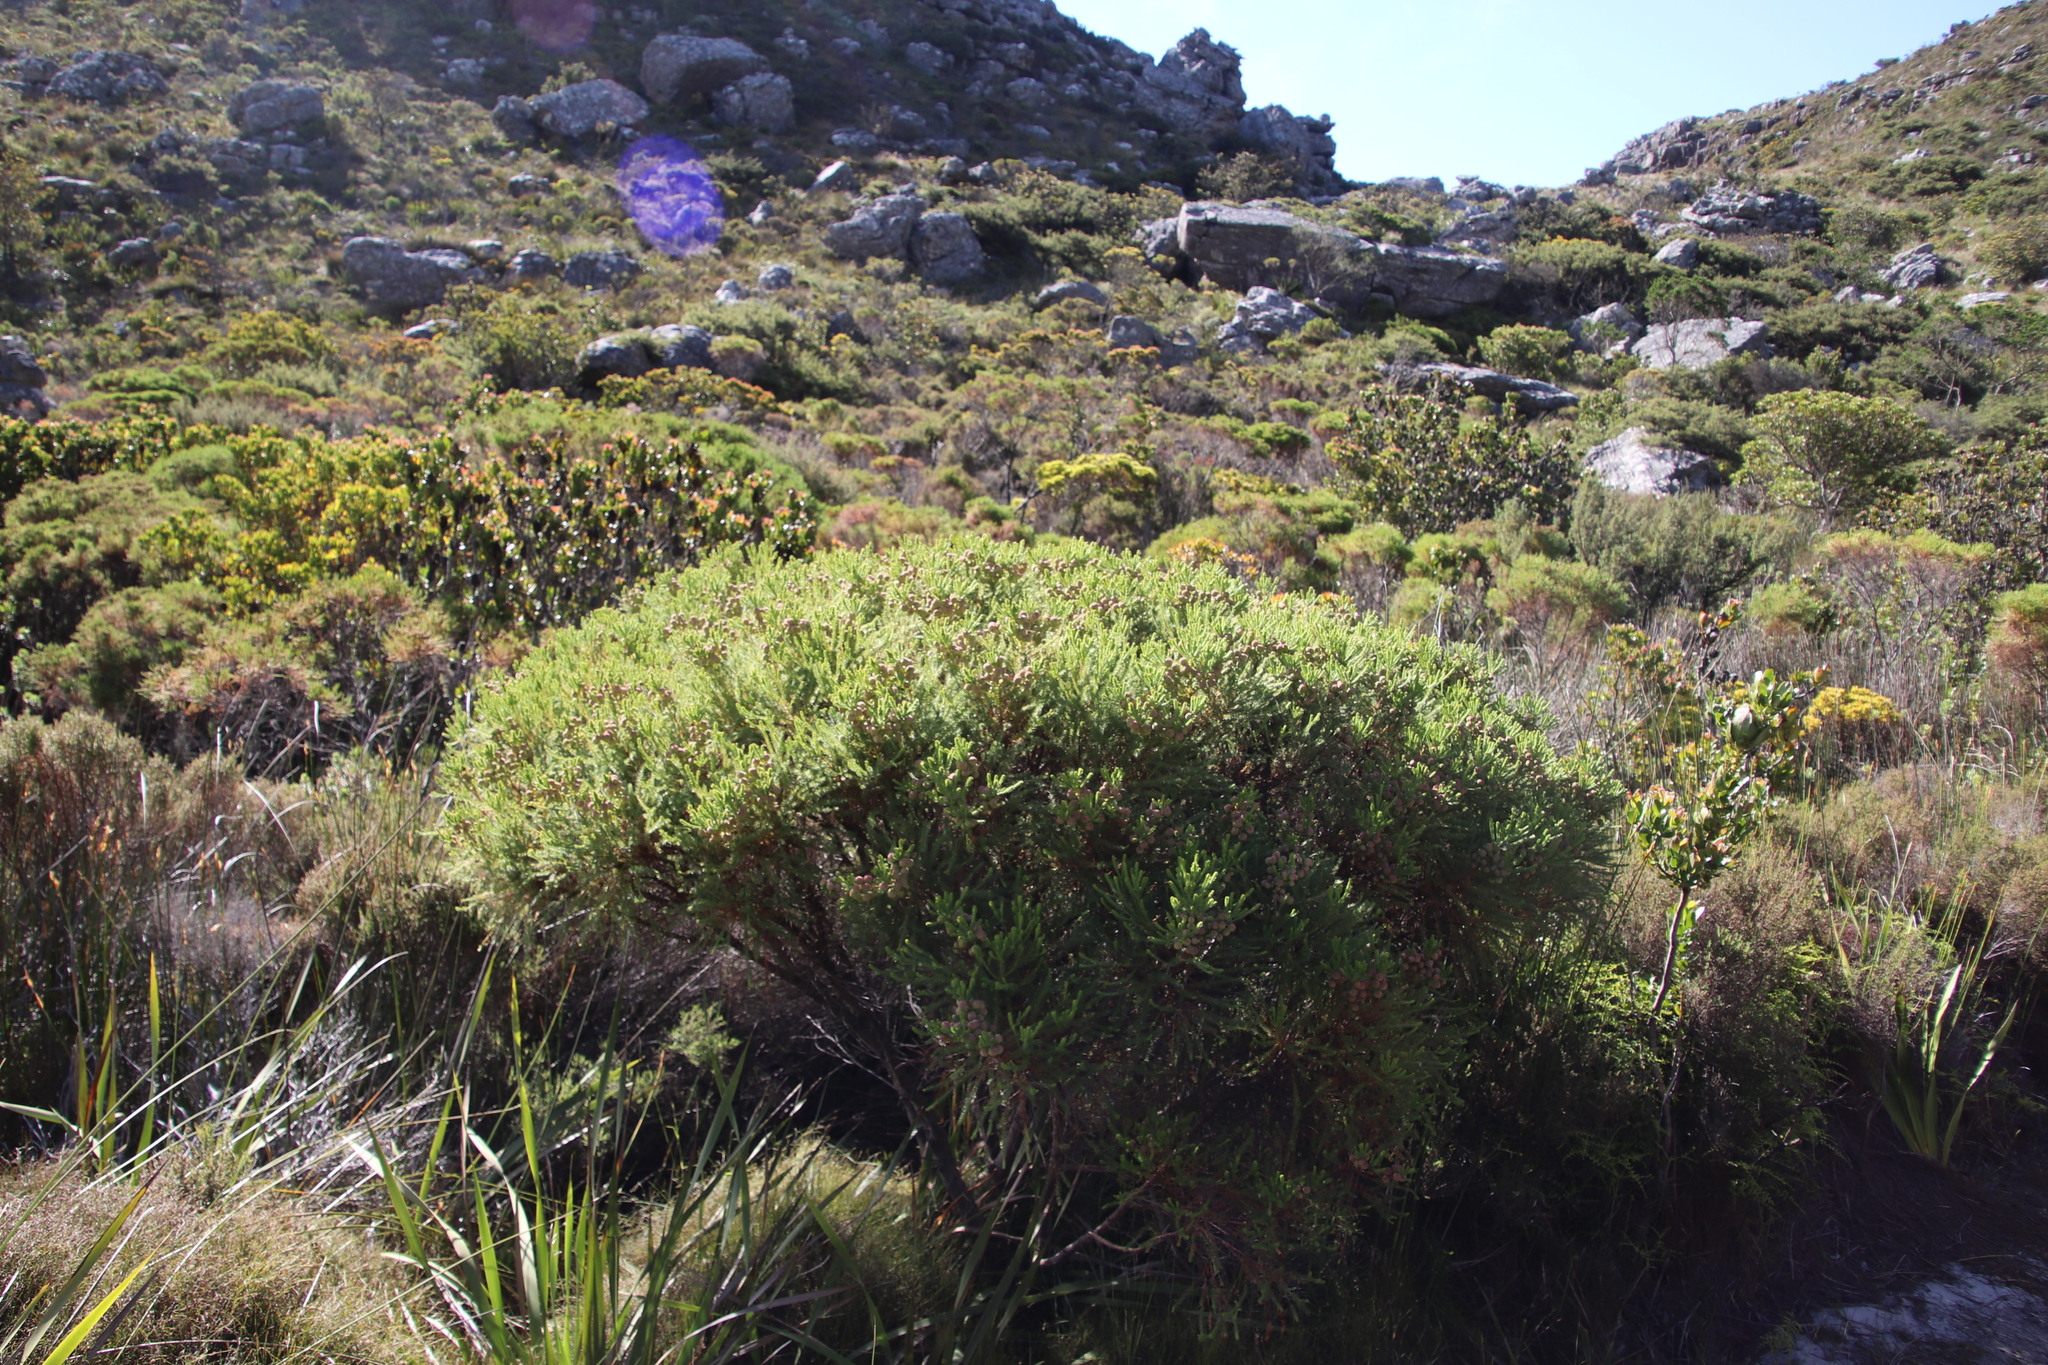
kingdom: Plantae
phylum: Tracheophyta
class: Magnoliopsida
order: Bruniales
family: Bruniaceae
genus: Berzelia
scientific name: Berzelia lanuginosa
